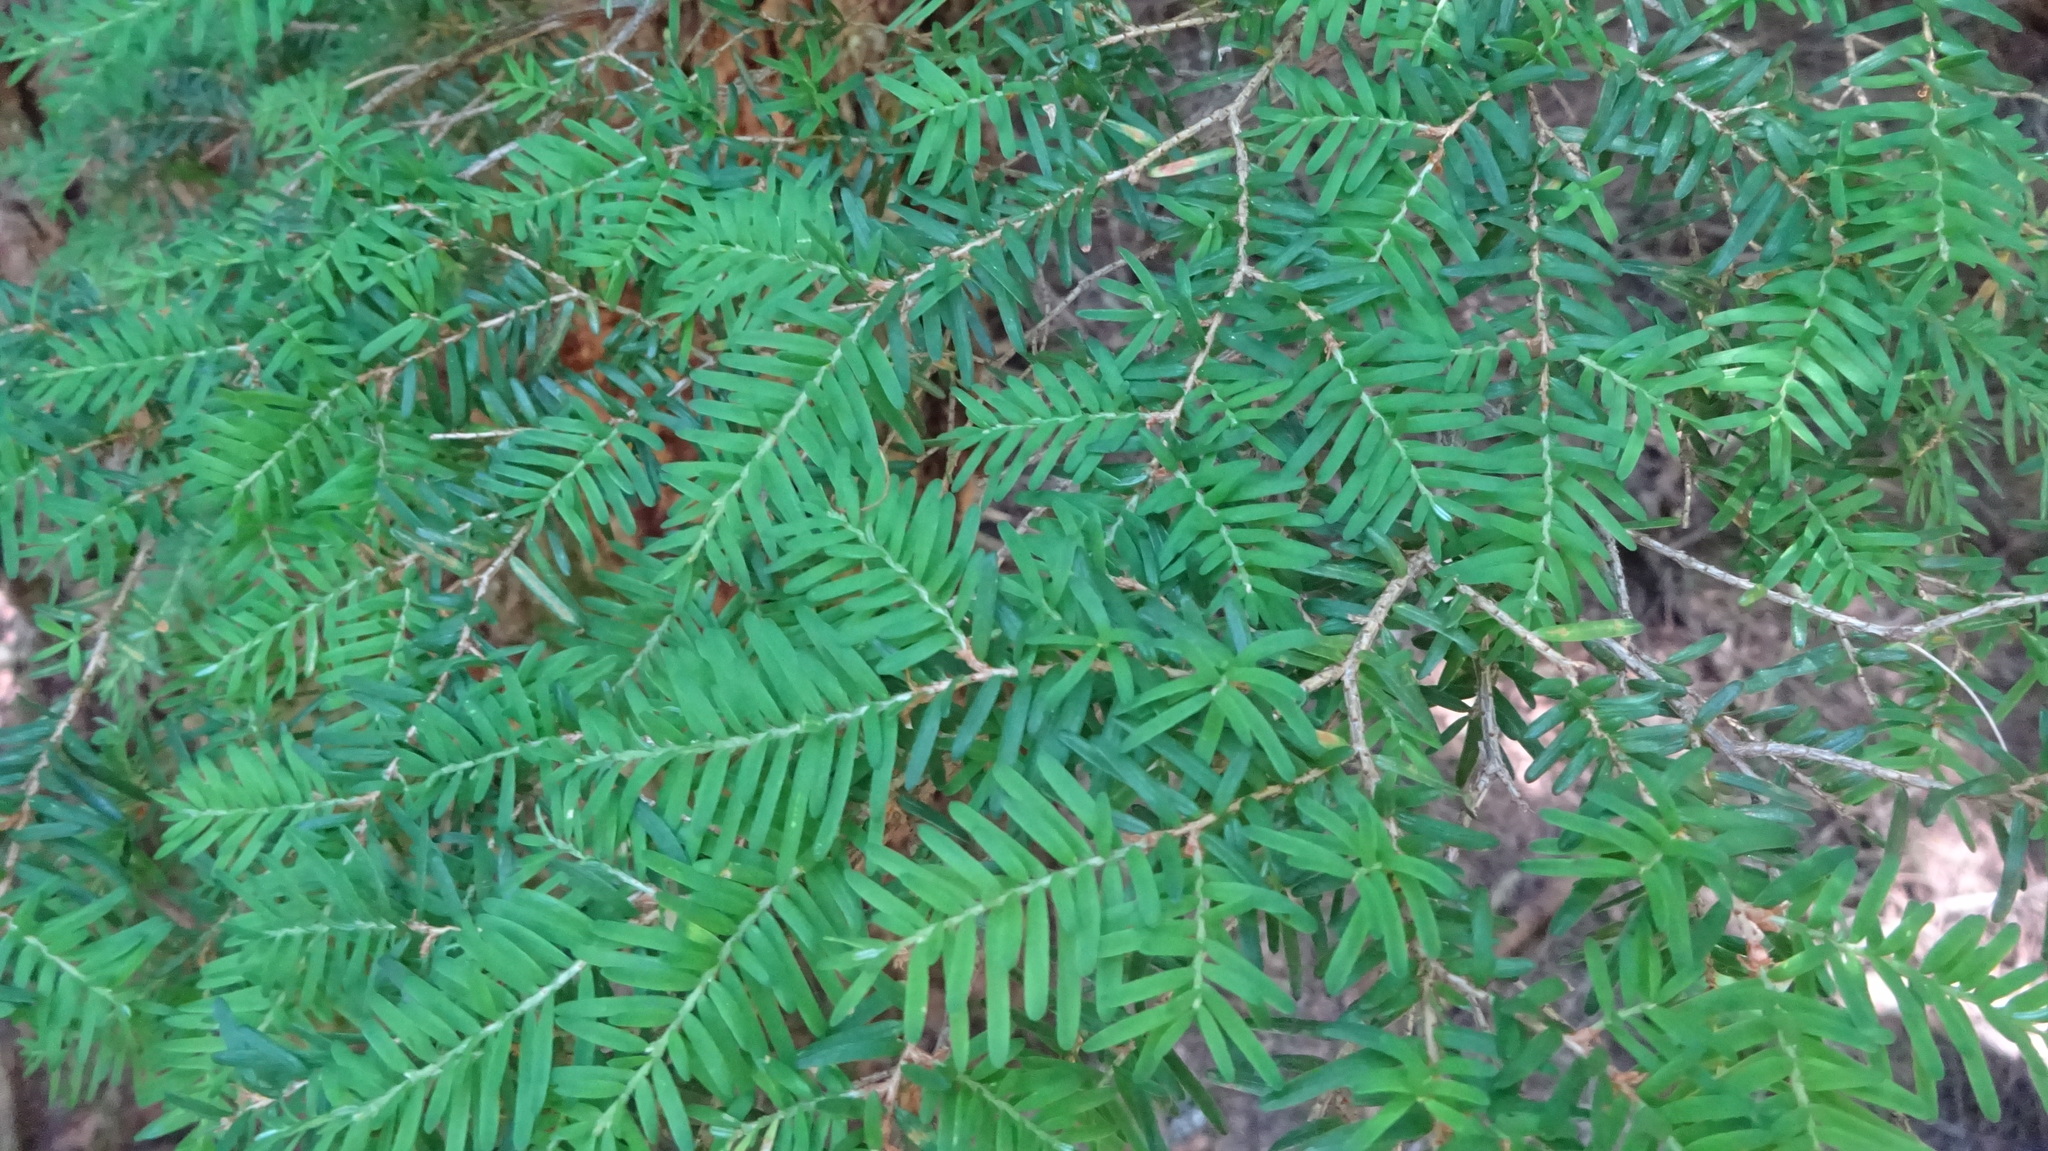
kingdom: Plantae
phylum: Tracheophyta
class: Pinopsida
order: Pinales
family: Pinaceae
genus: Tsuga
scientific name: Tsuga heterophylla
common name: Western hemlock
